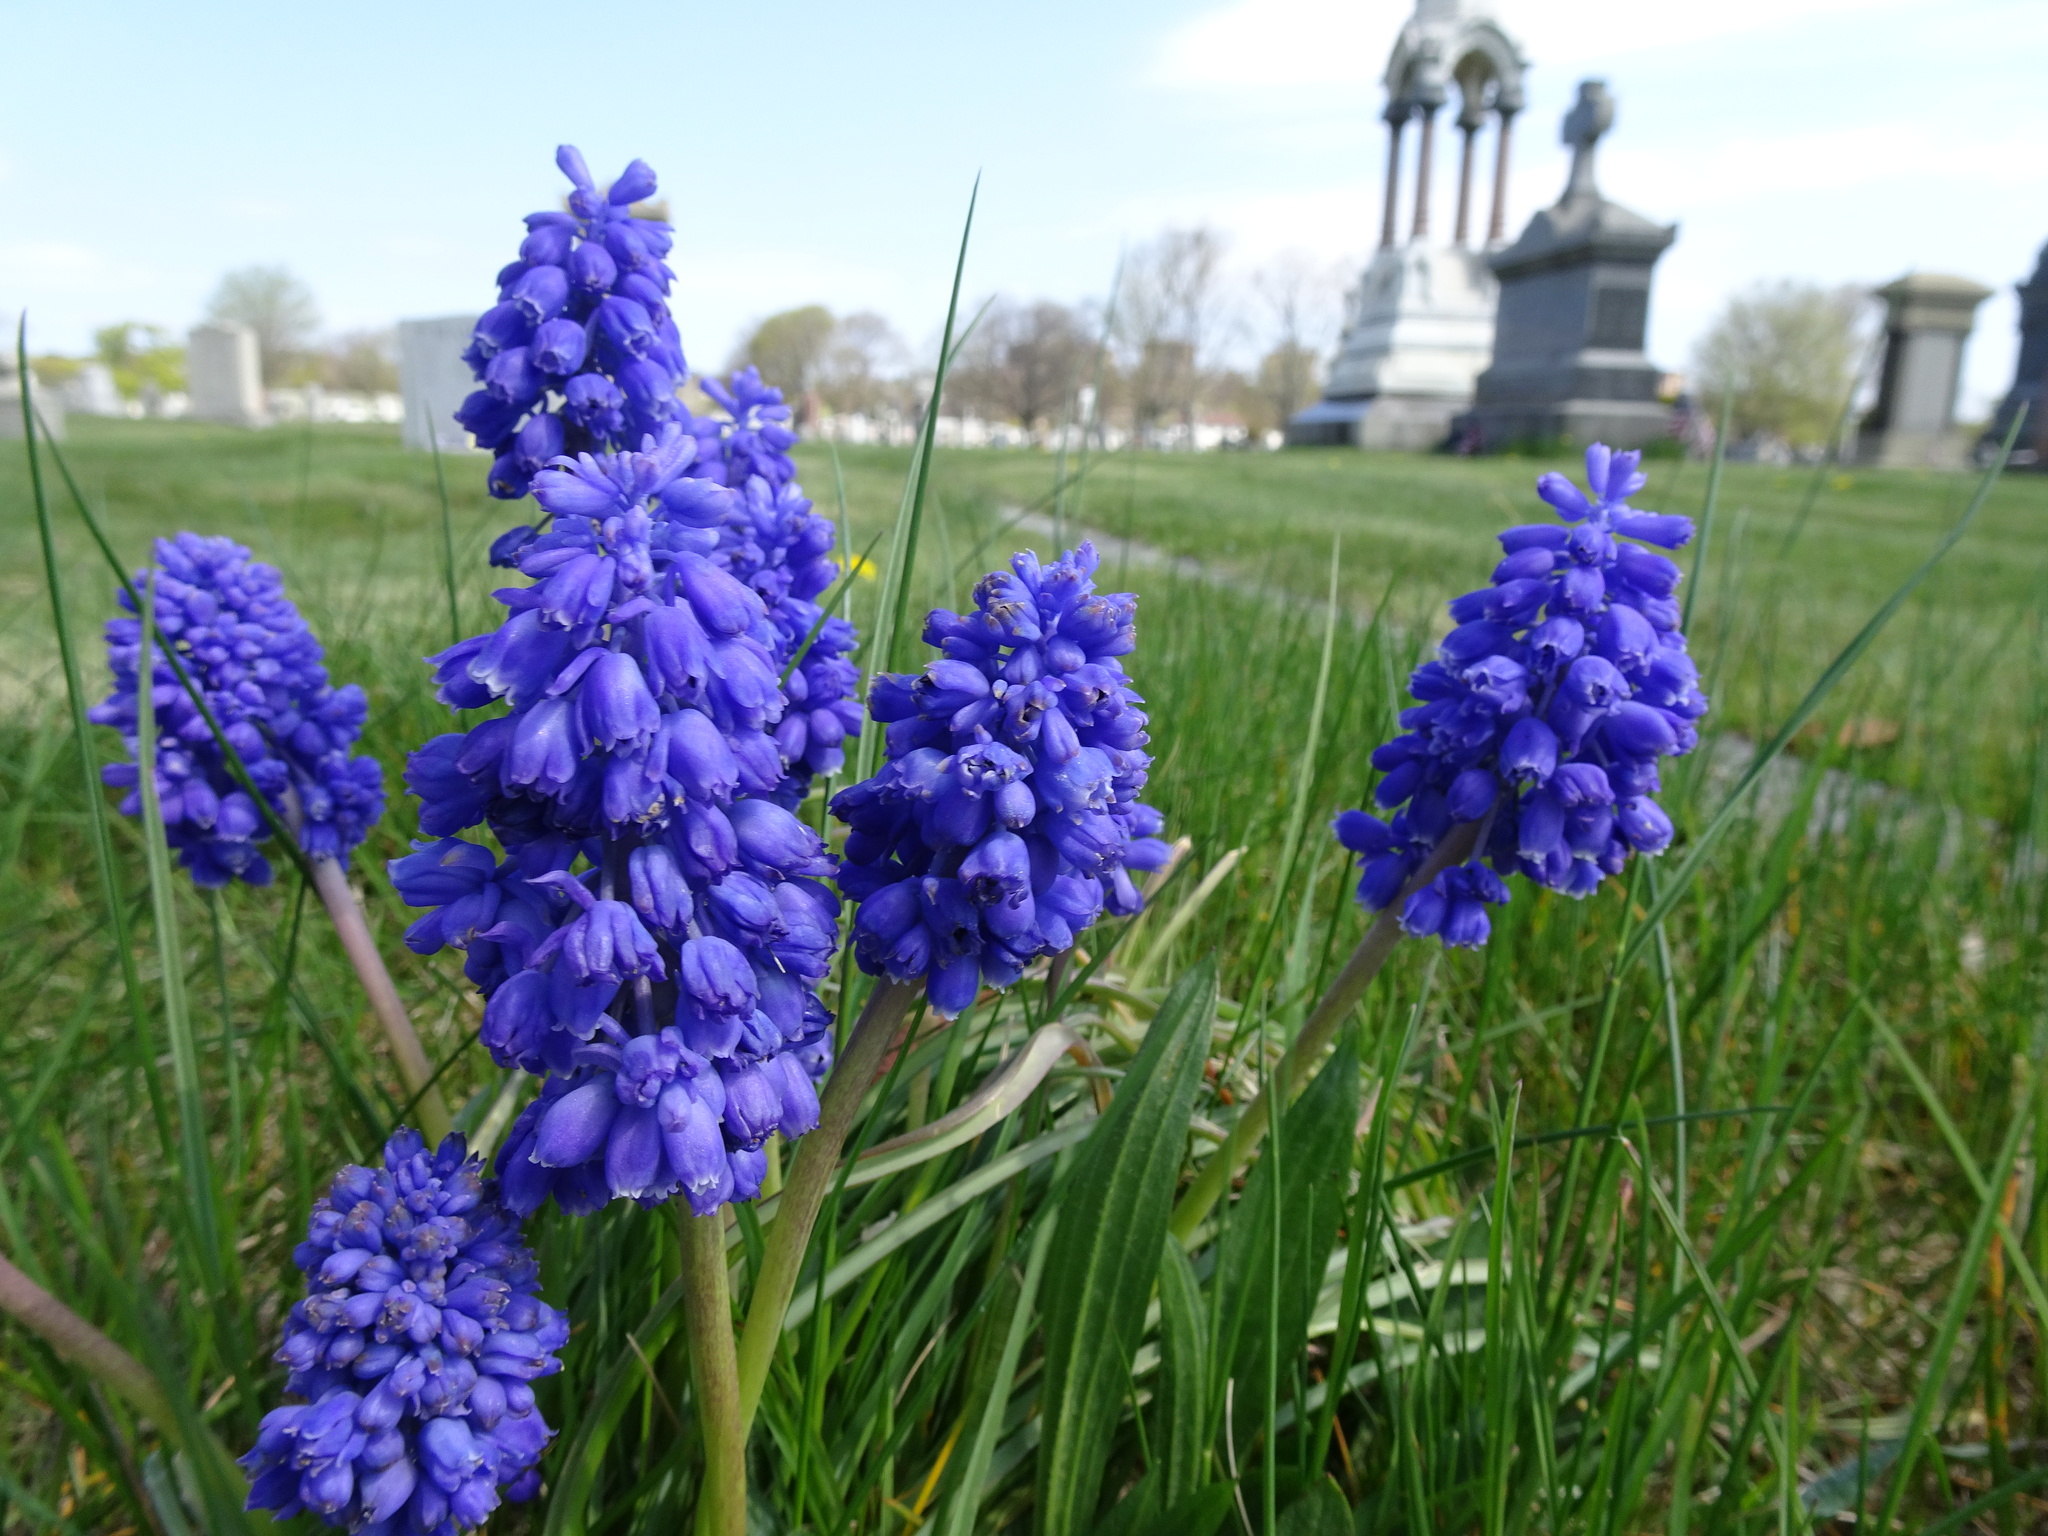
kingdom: Plantae
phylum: Tracheophyta
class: Liliopsida
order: Asparagales
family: Asparagaceae
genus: Muscari
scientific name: Muscari armeniacum
